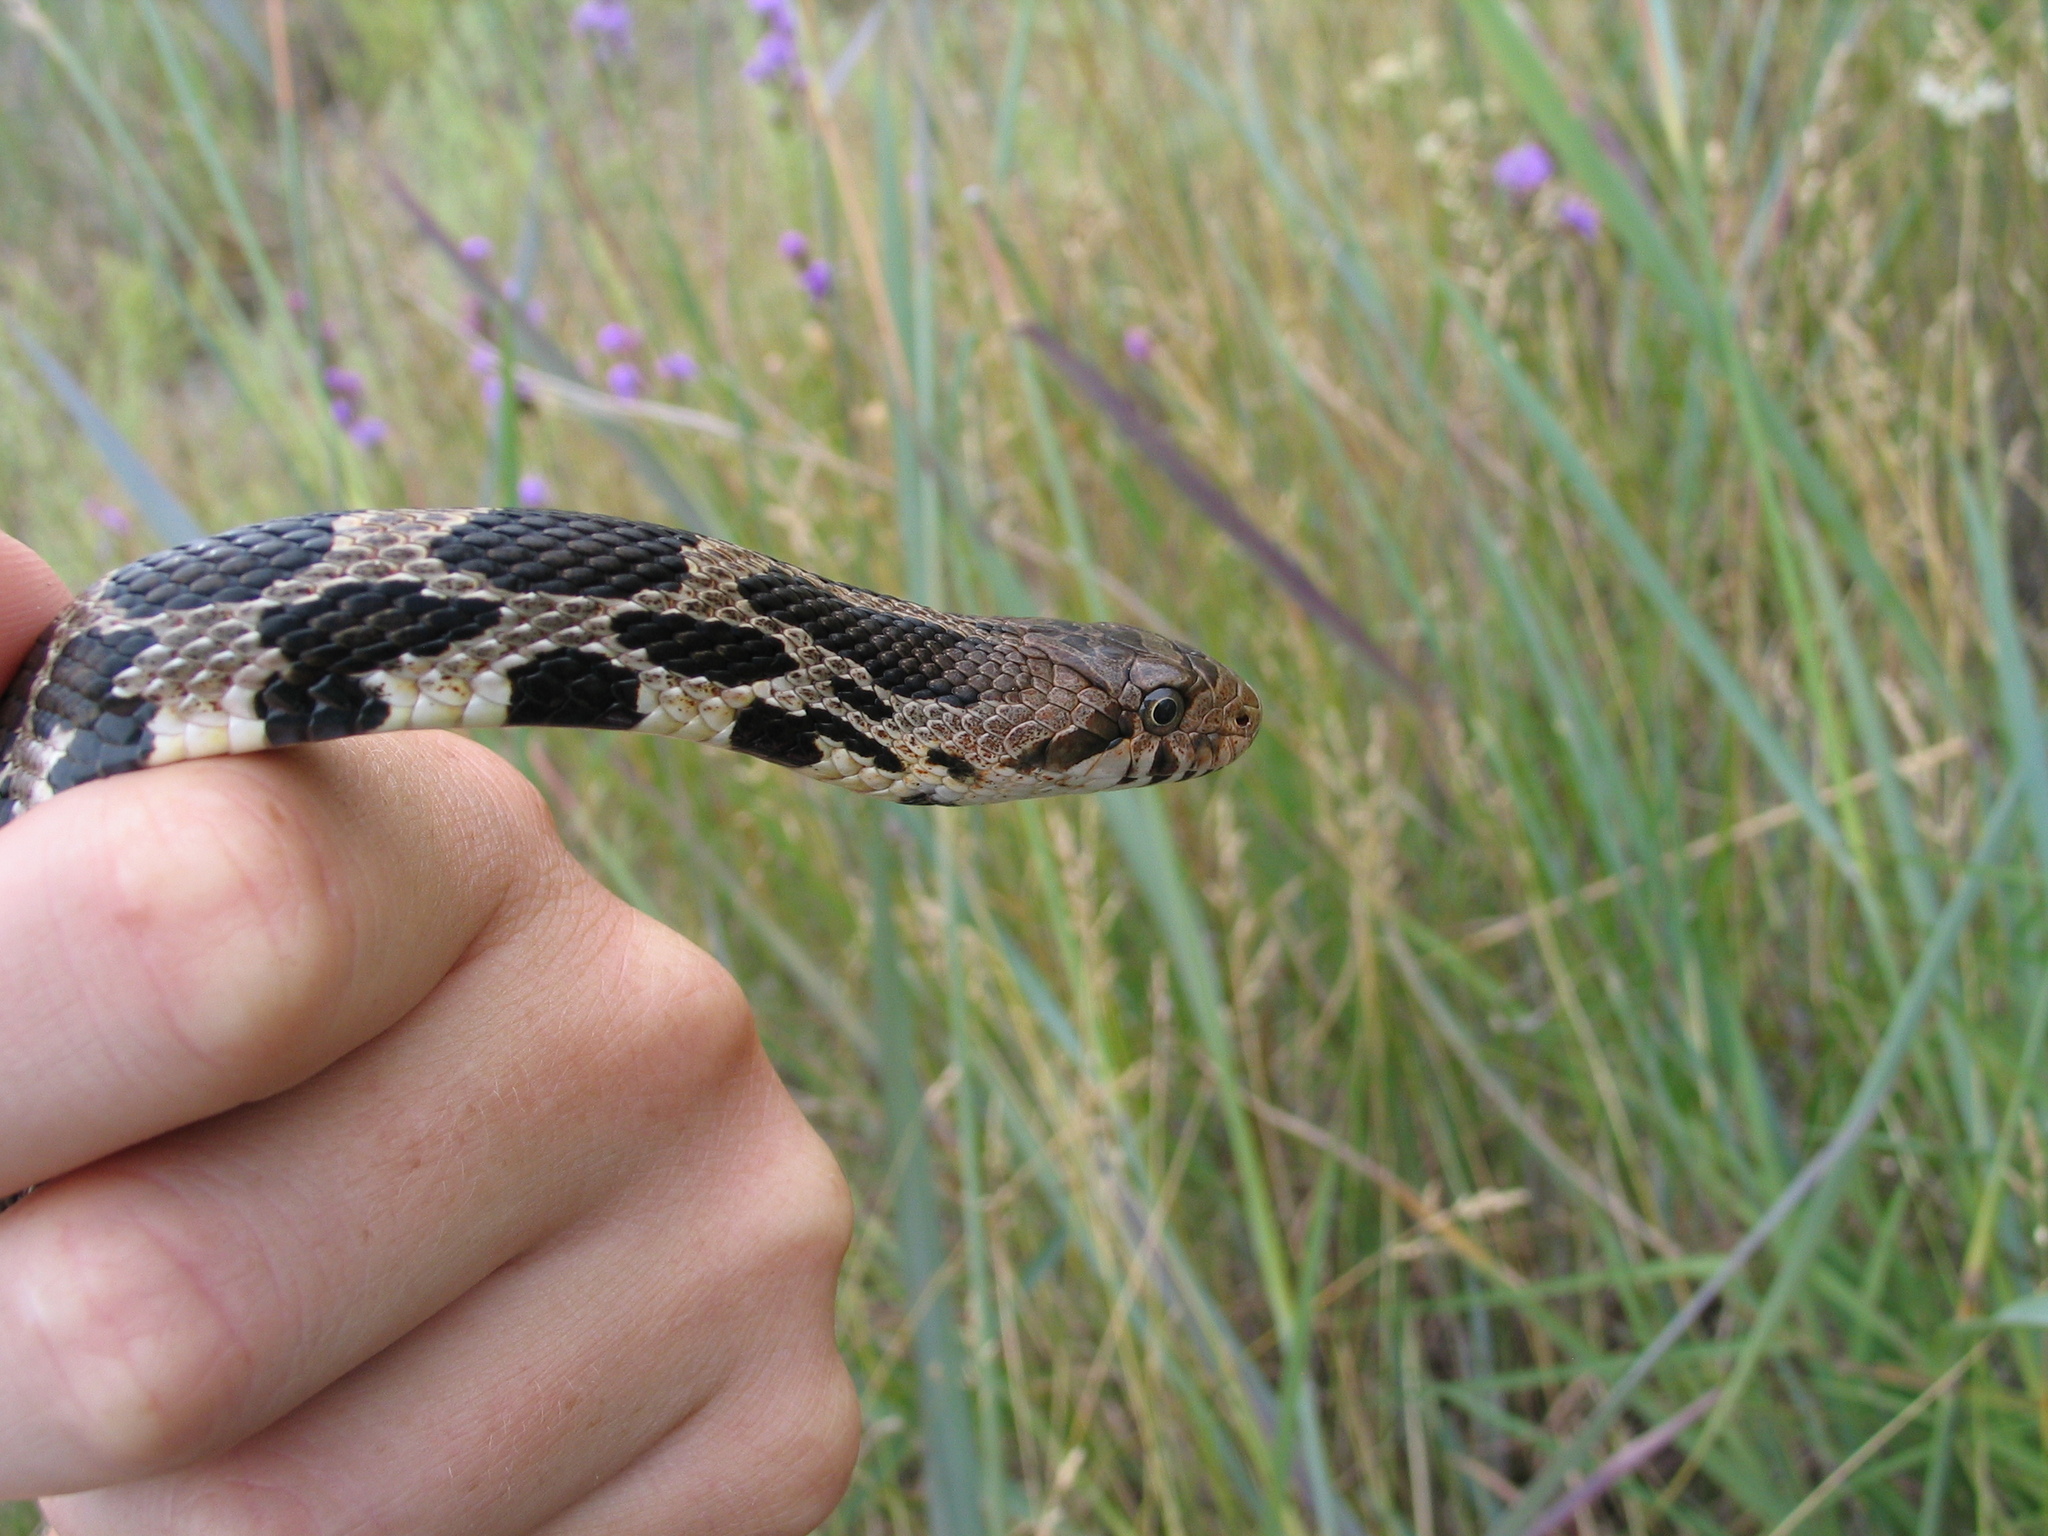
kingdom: Animalia
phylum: Chordata
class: Squamata
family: Colubridae
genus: Pantherophis
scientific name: Pantherophis vulpinus
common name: Eastern fox snake
